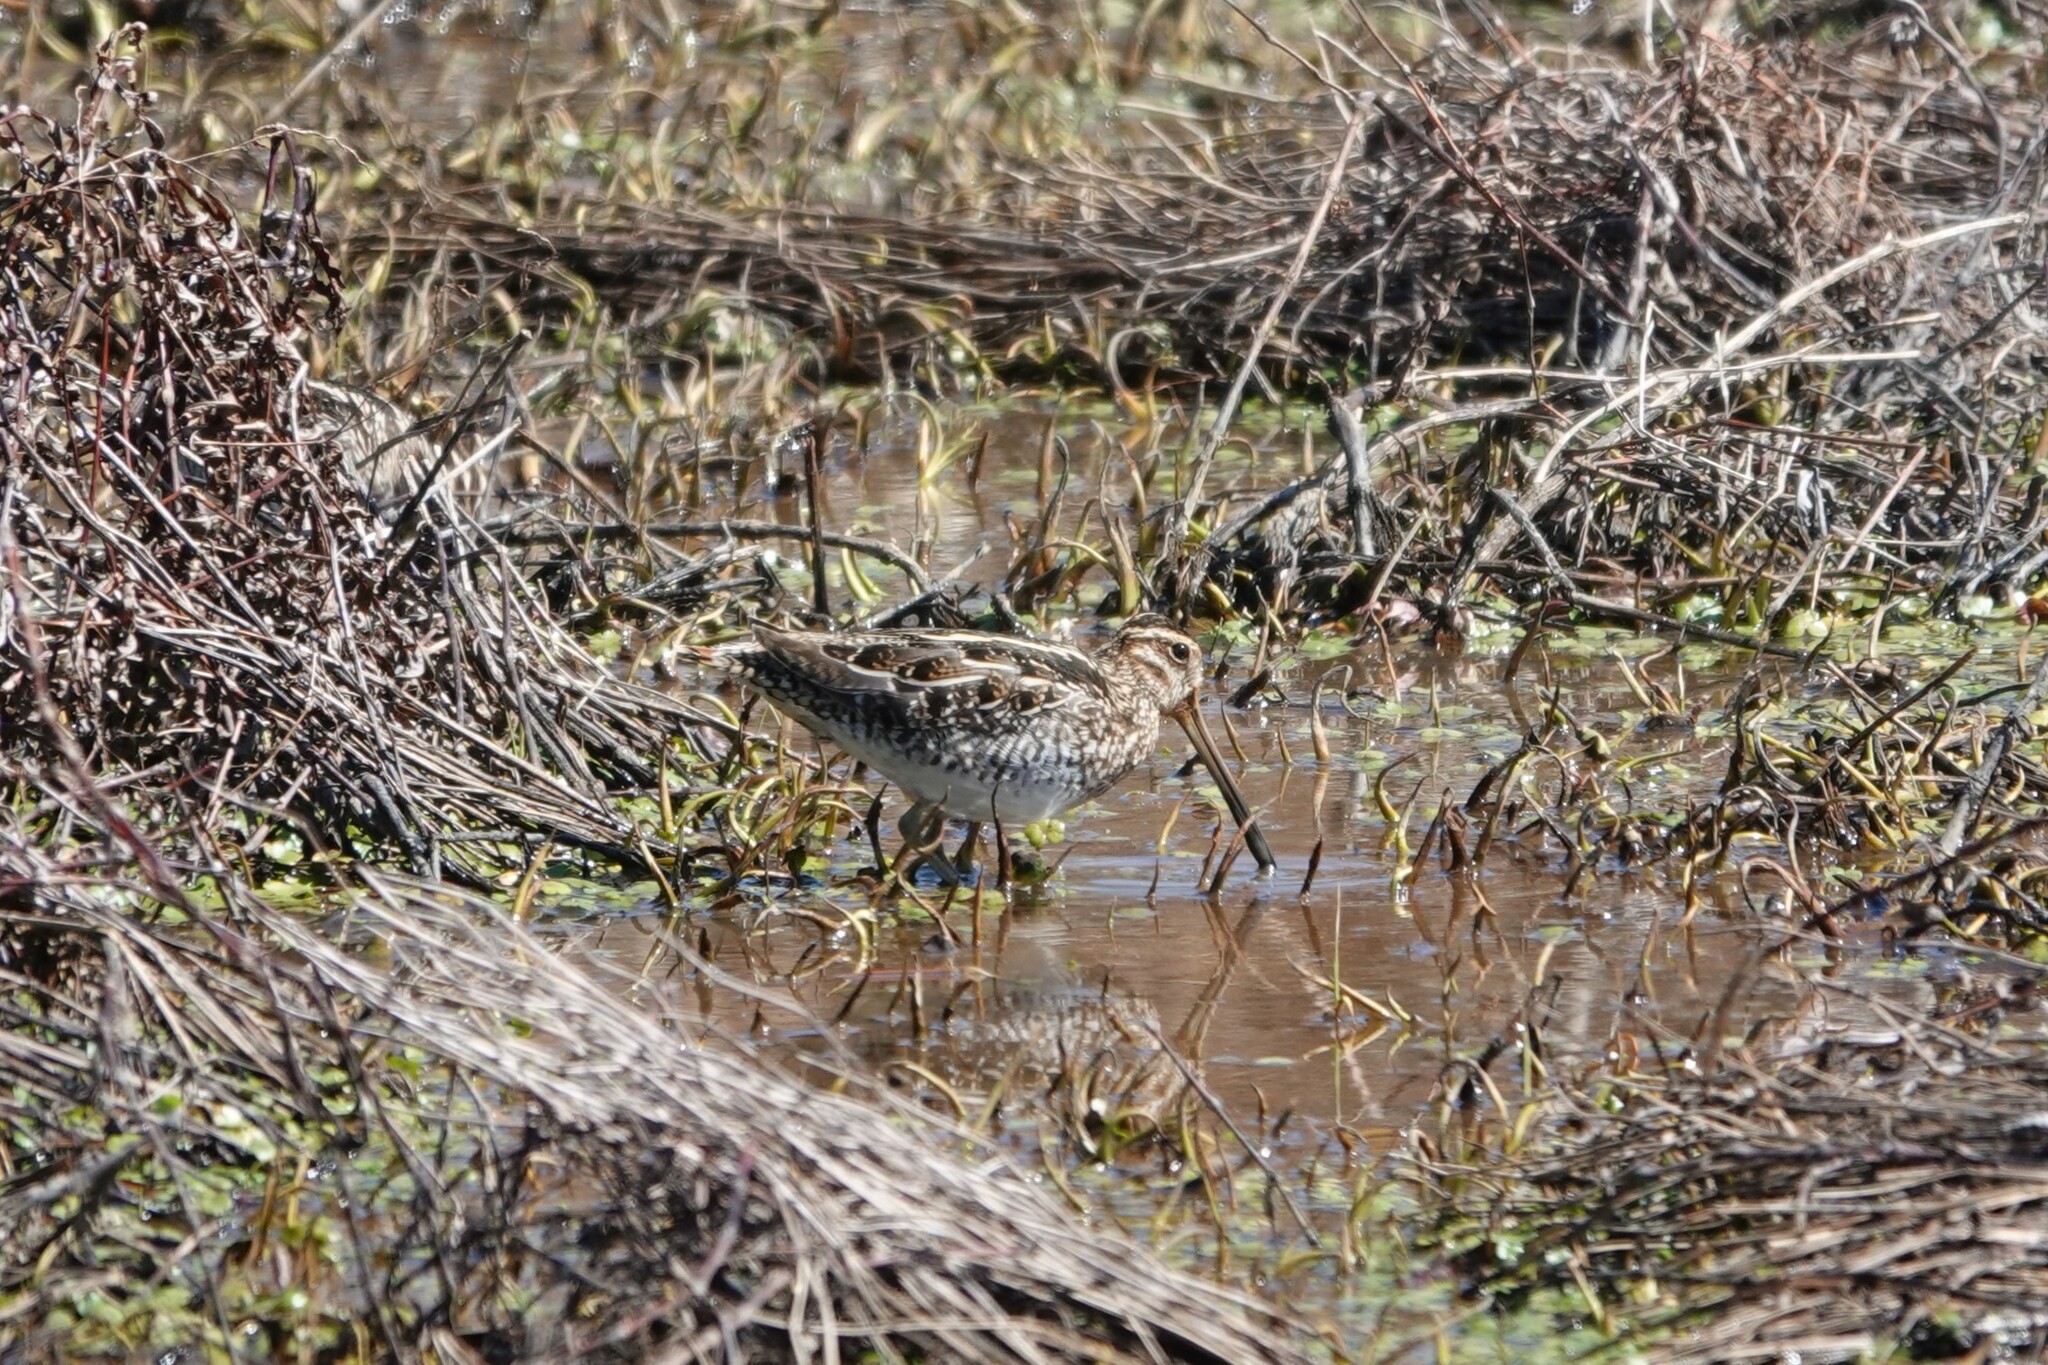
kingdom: Animalia
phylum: Chordata
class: Aves
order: Charadriiformes
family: Scolopacidae
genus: Gallinago
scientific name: Gallinago delicata
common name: Wilson's snipe
